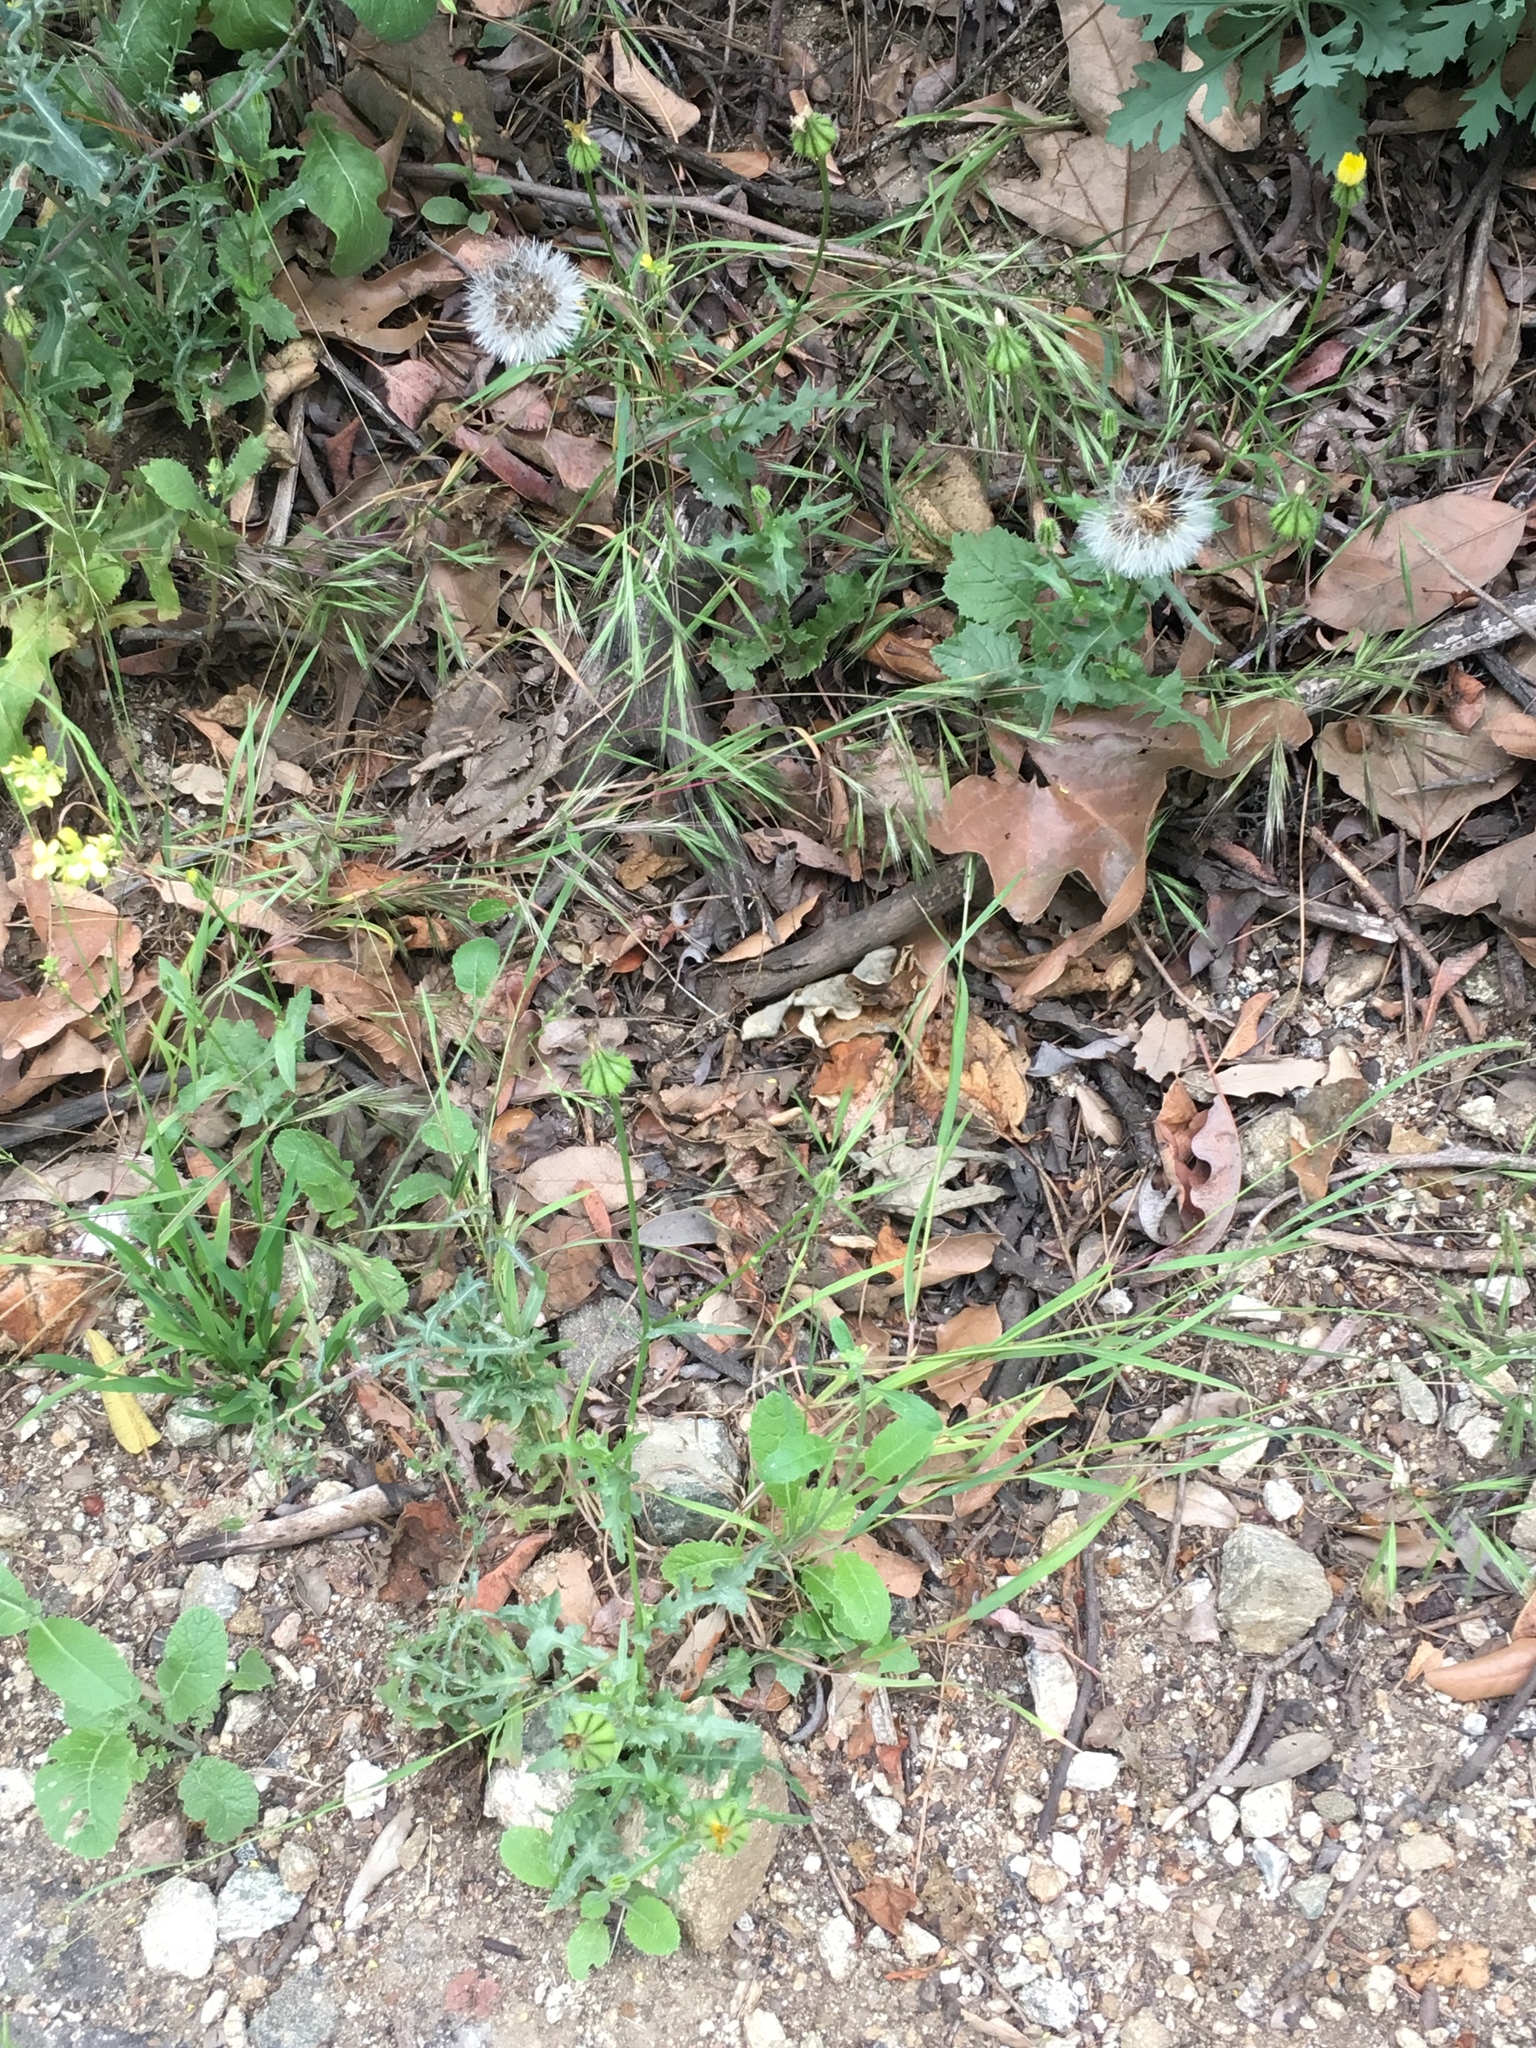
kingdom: Plantae
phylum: Tracheophyta
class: Magnoliopsida
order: Asterales
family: Asteraceae
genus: Urospermum
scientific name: Urospermum picroides
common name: False hawkbit
